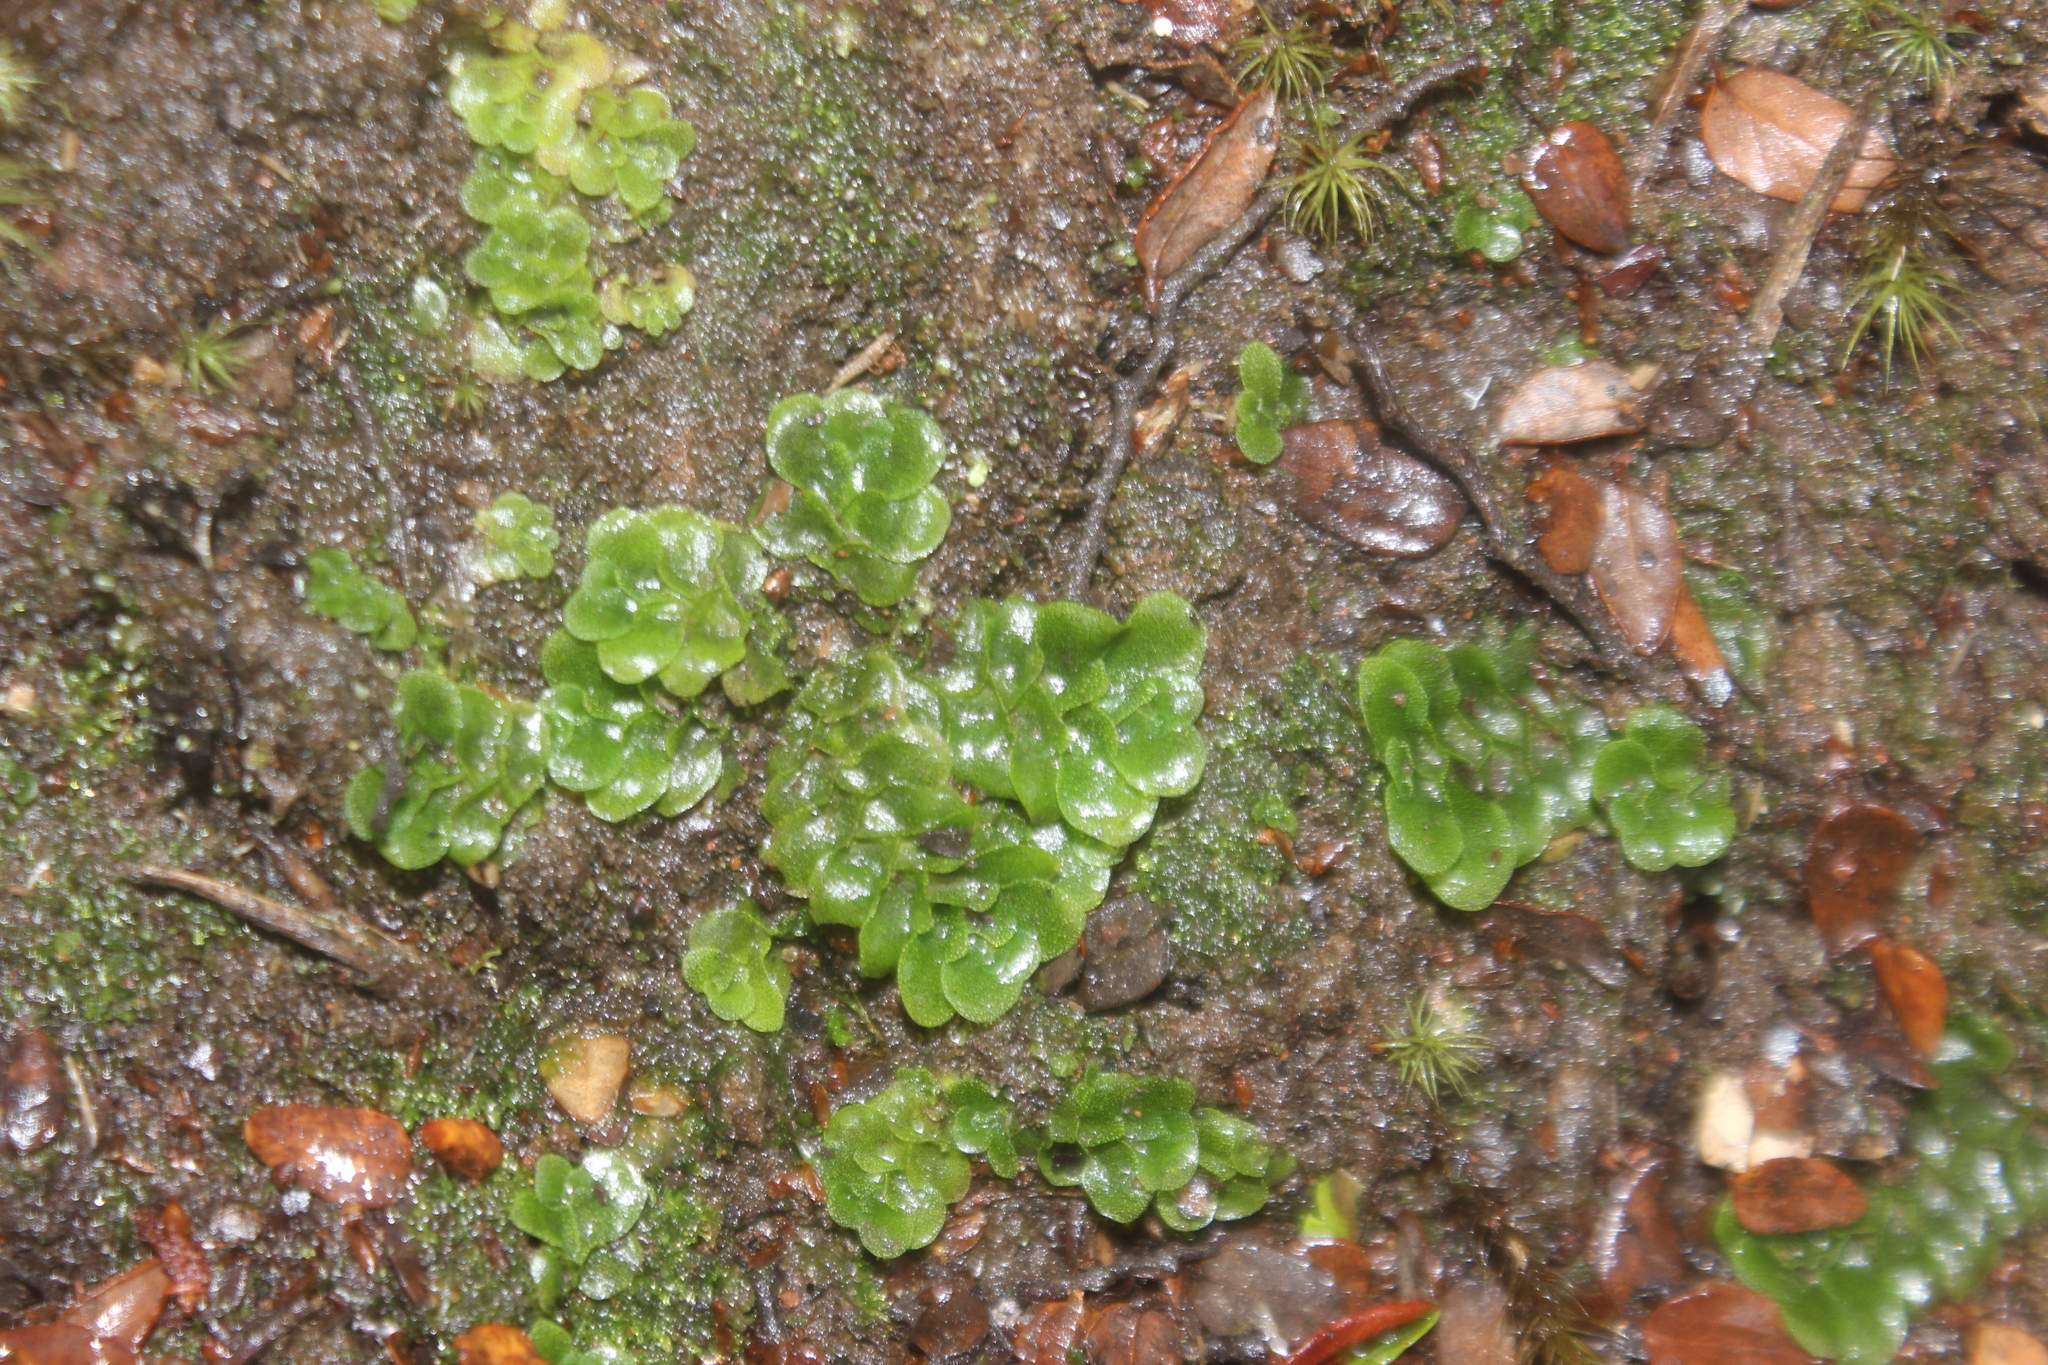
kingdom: Plantae
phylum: Marchantiophyta
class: Haplomitriopsida
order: Treubiales
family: Treubiaceae
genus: Treubia
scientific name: Treubia lacunosa
